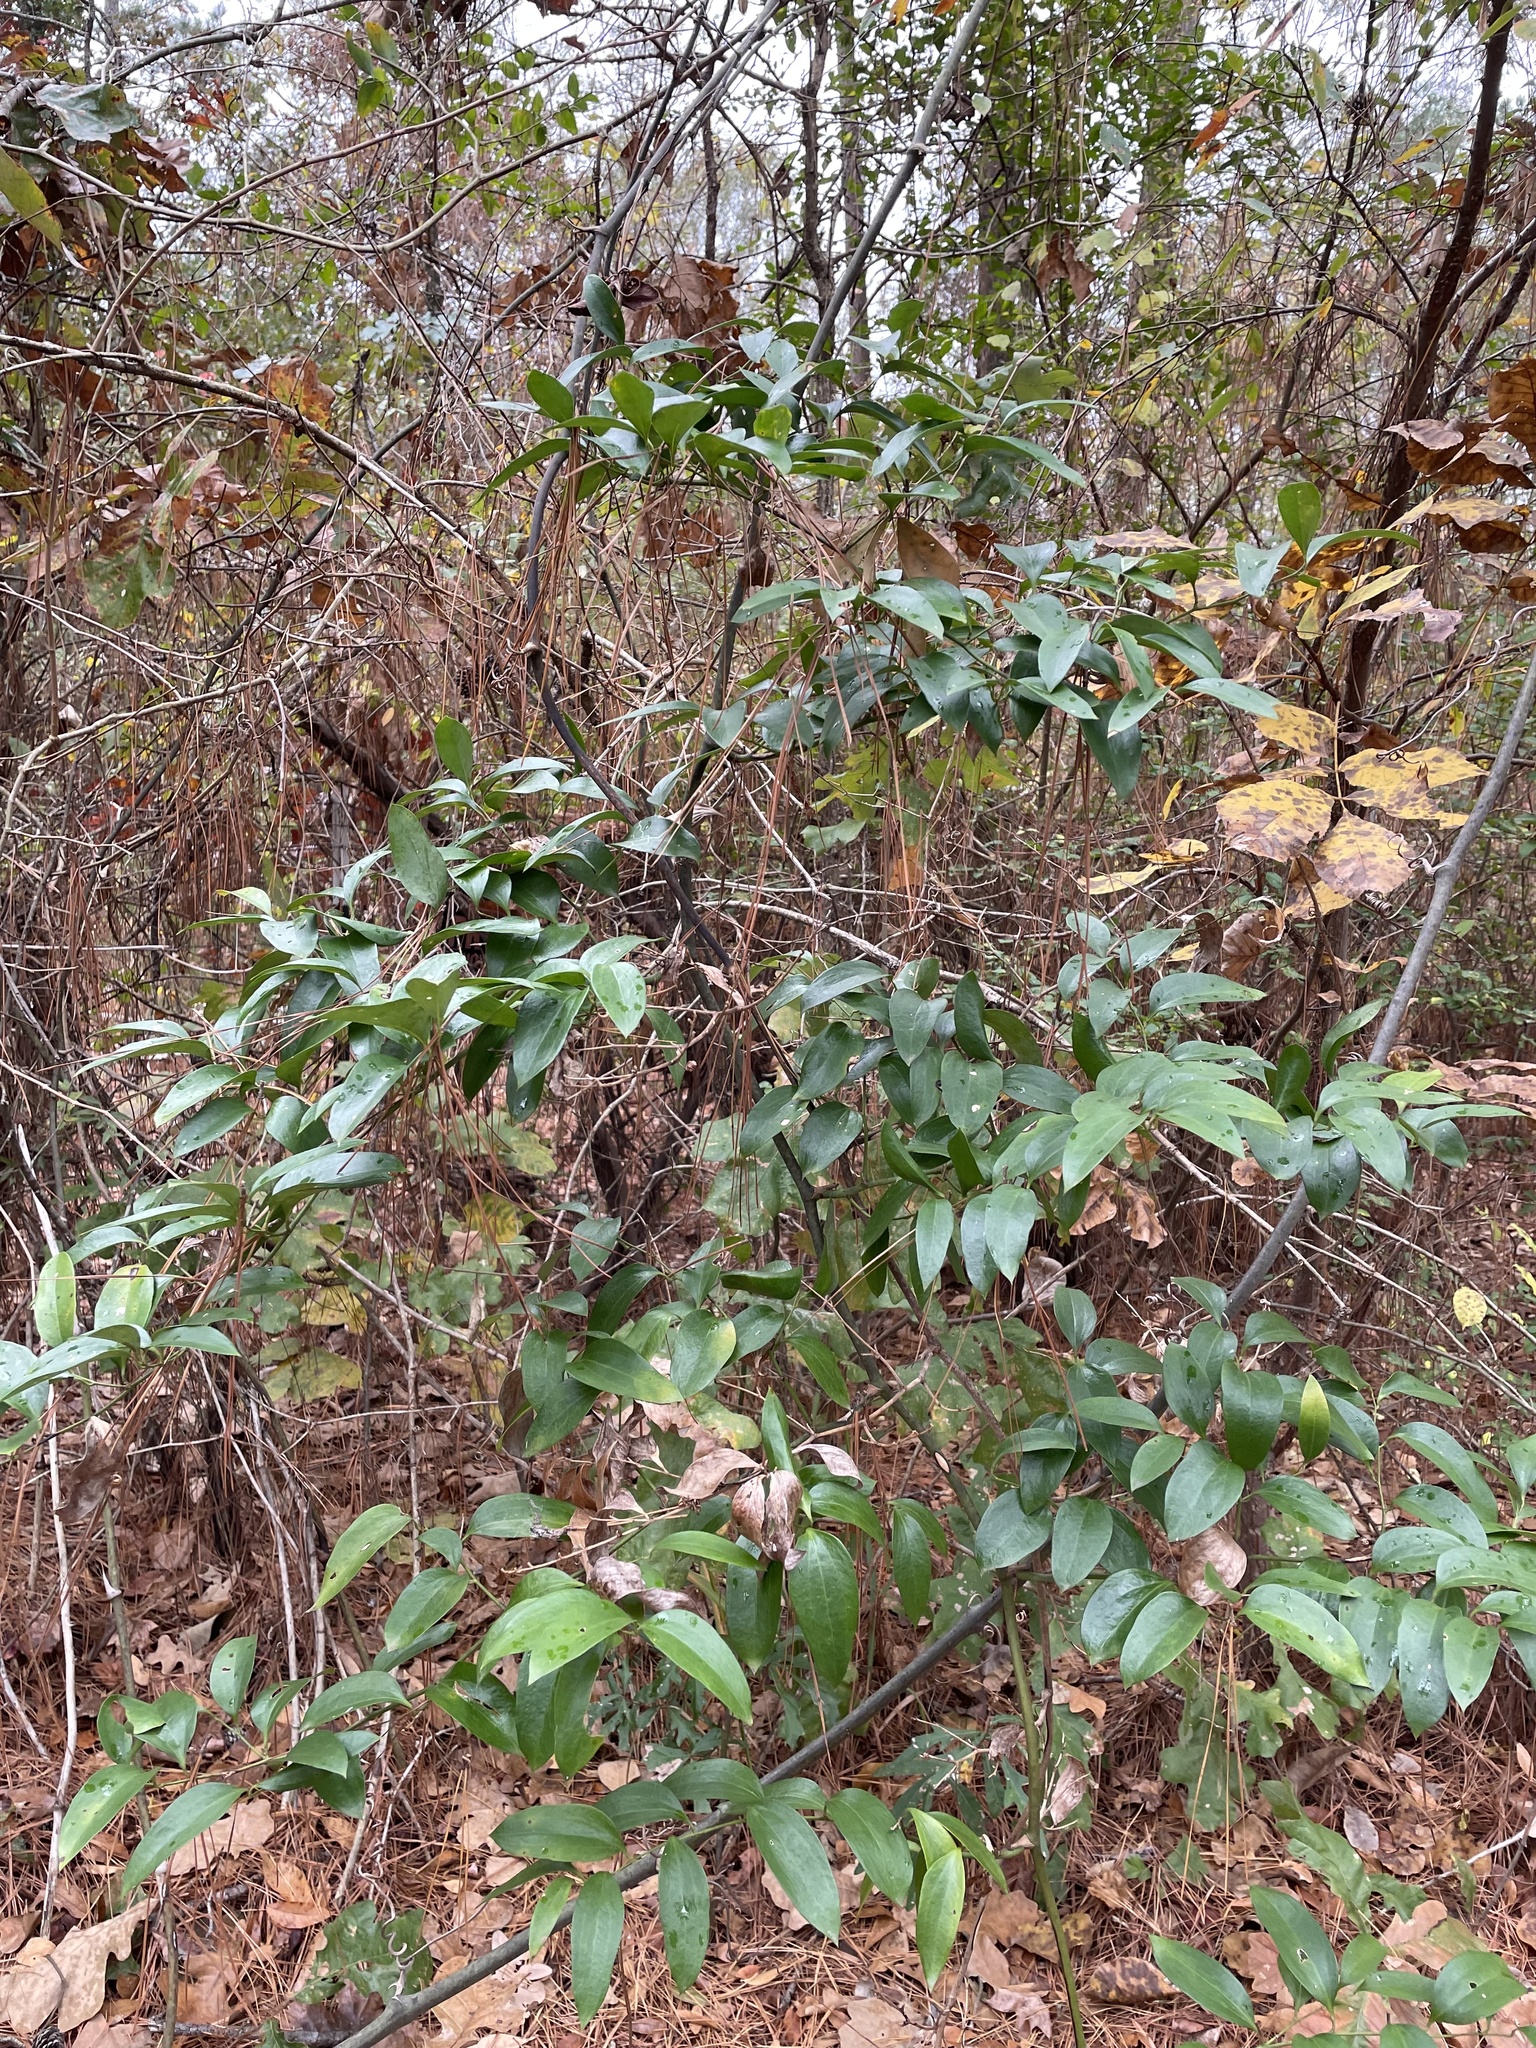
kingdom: Plantae
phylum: Tracheophyta
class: Liliopsida
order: Liliales
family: Smilacaceae
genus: Smilax
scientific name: Smilax maritima
